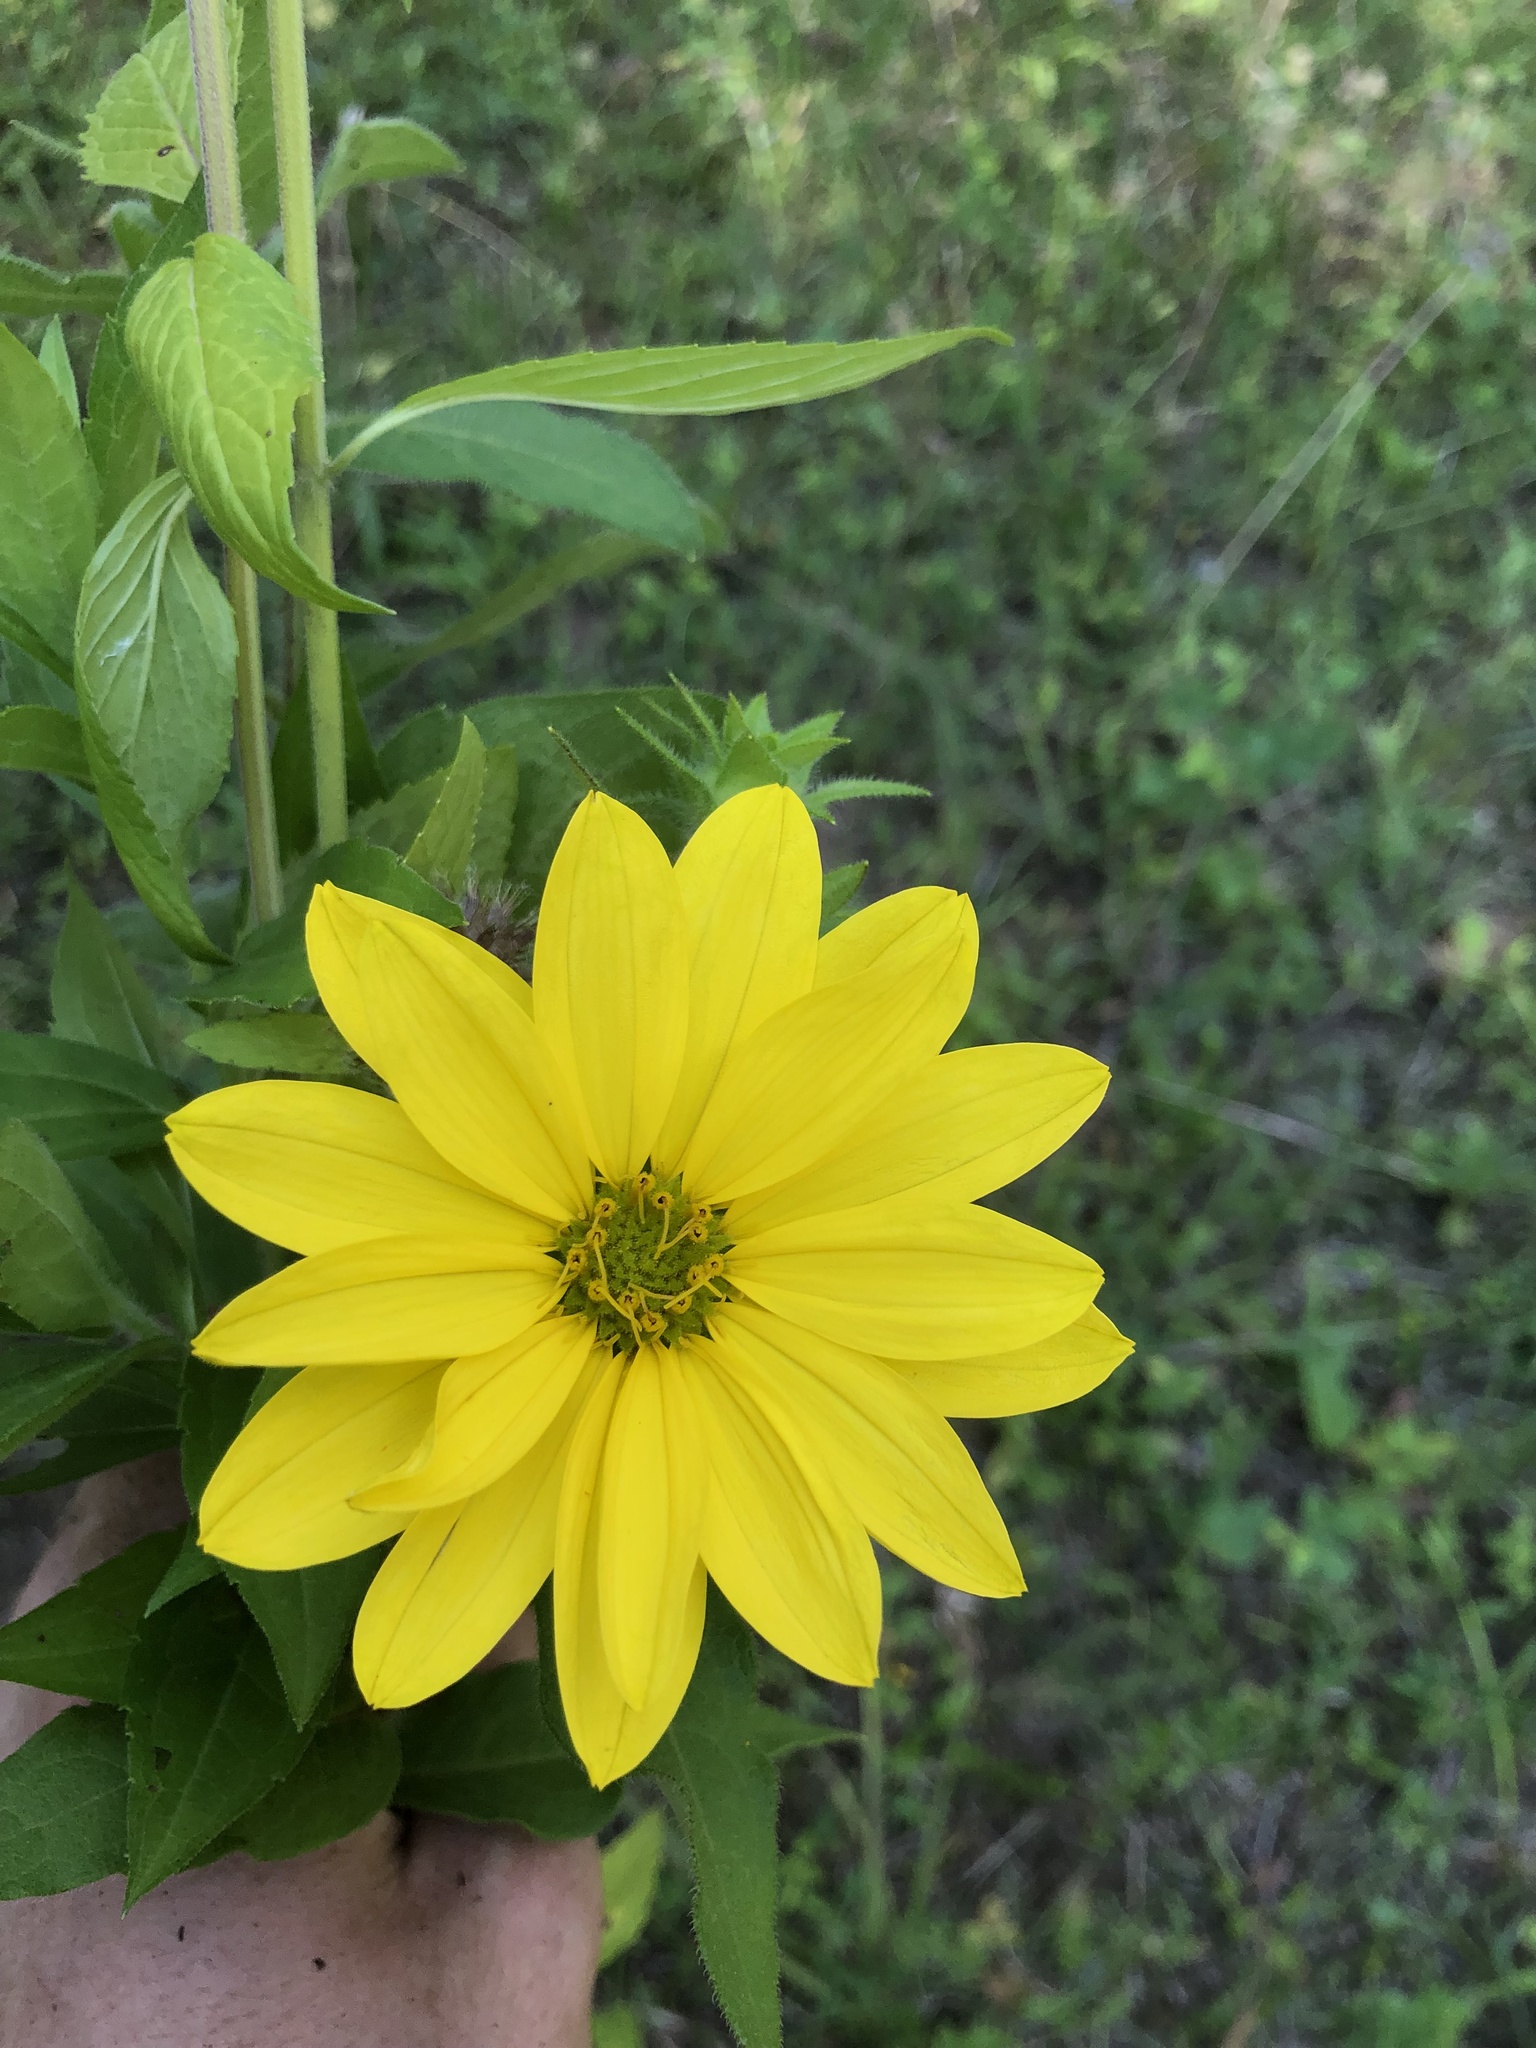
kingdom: Plantae
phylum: Tracheophyta
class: Magnoliopsida
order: Asterales
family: Asteraceae
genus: Silphium
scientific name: Silphium asperrimum
